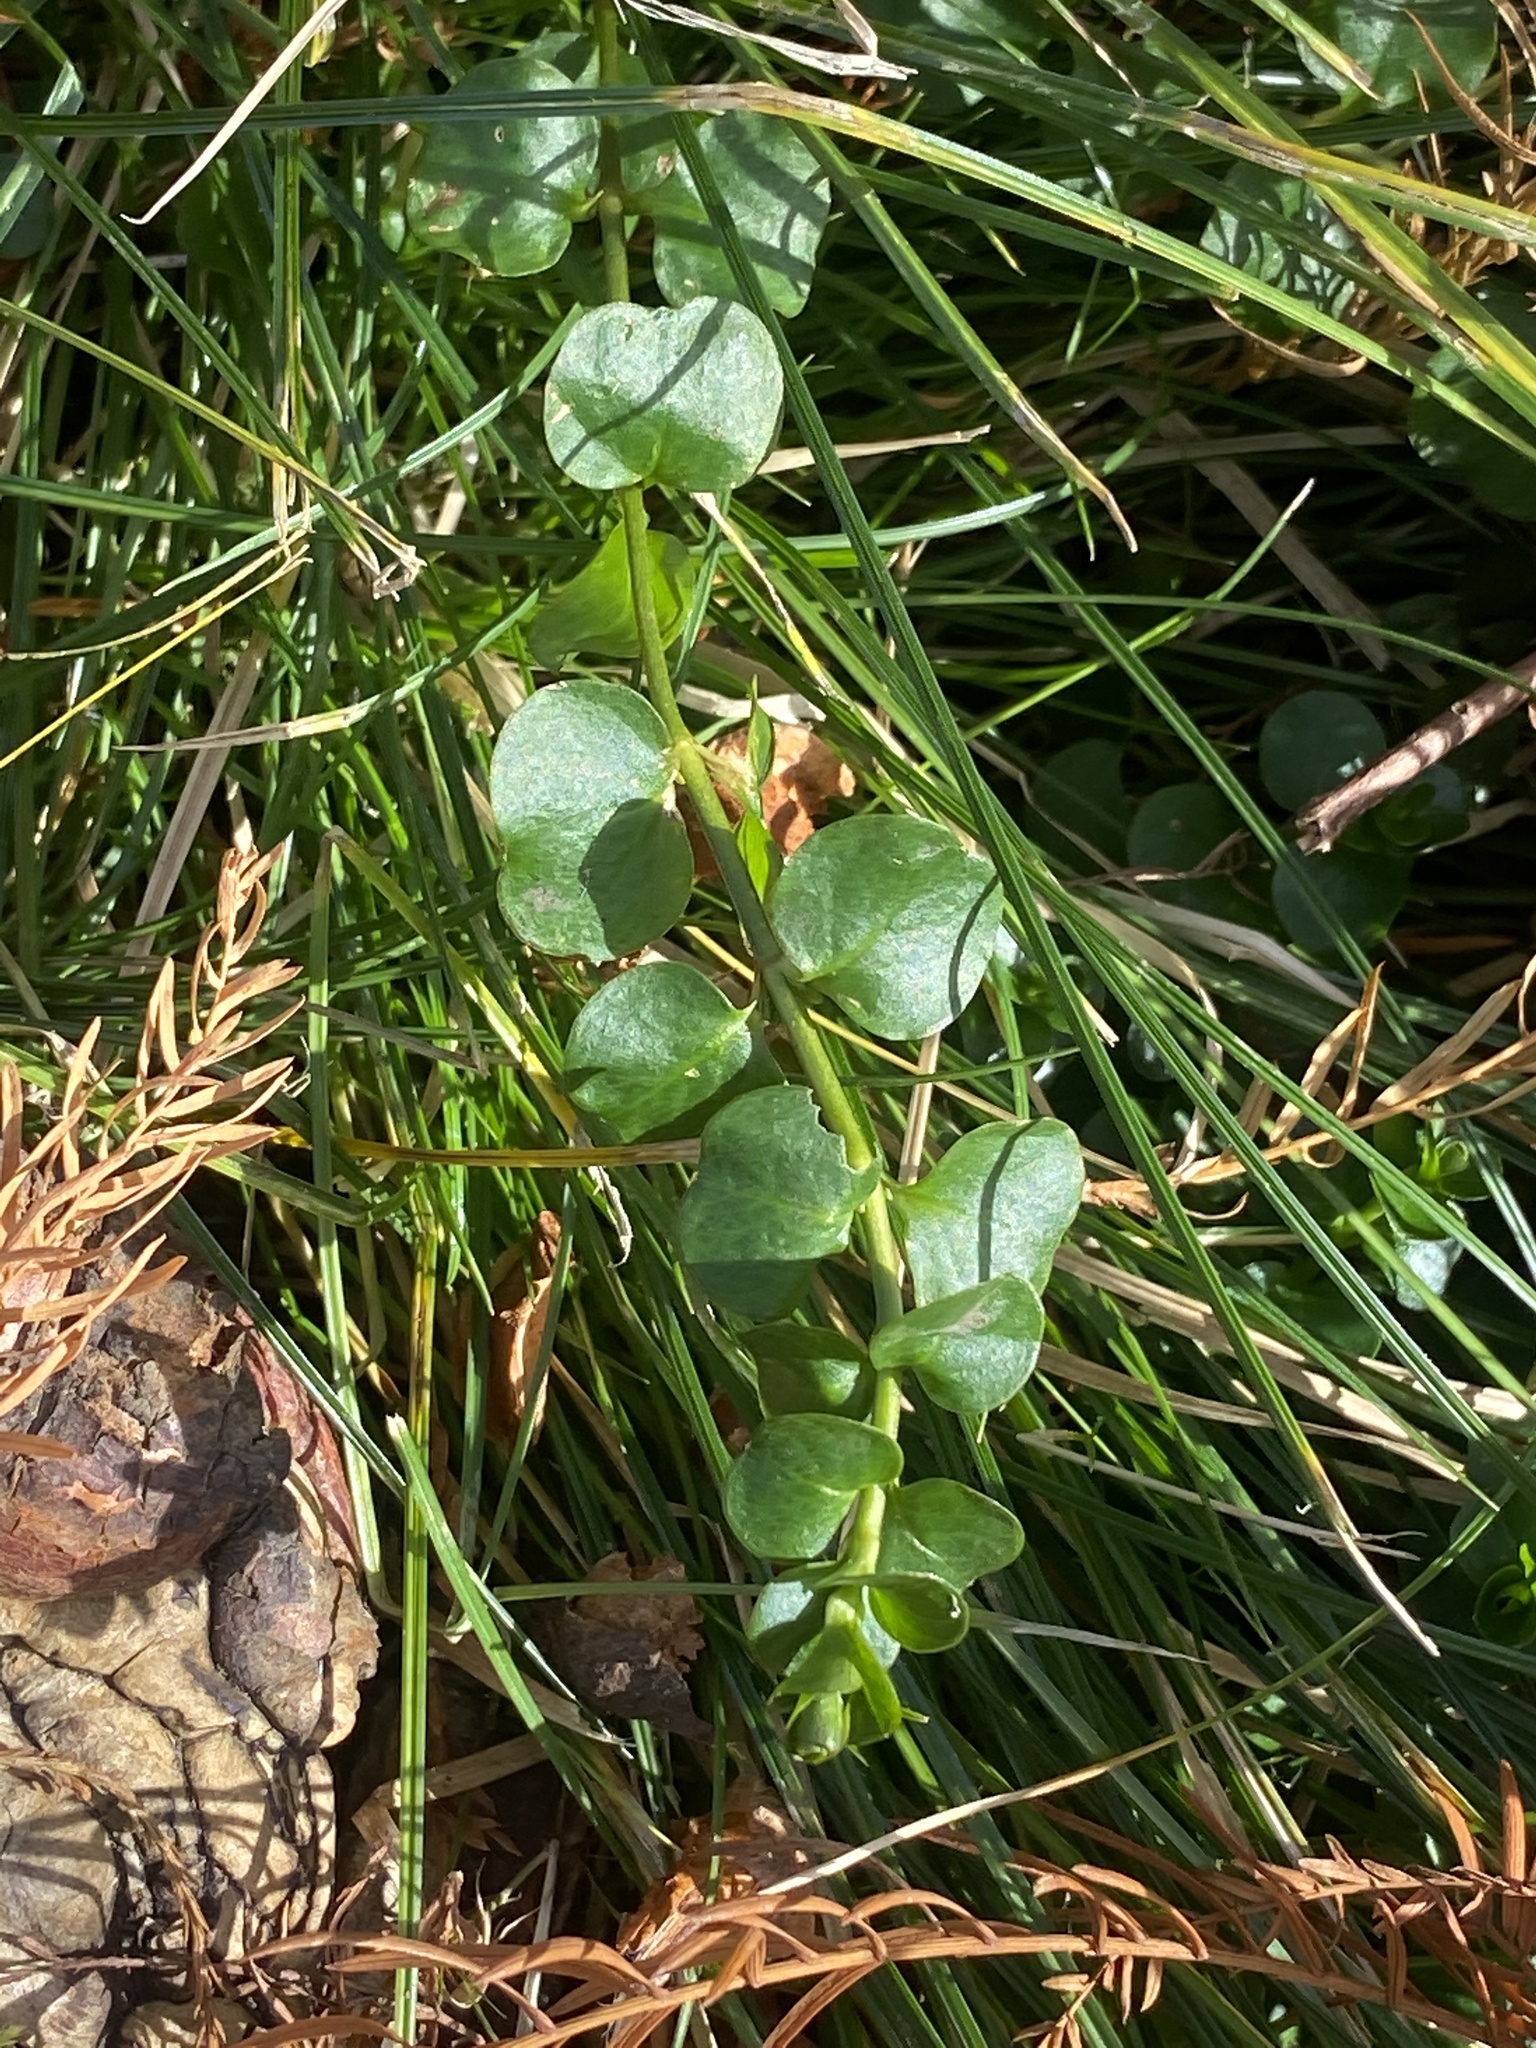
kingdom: Plantae
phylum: Tracheophyta
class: Magnoliopsida
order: Ericales
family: Primulaceae
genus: Lysimachia
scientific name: Lysimachia nummularia
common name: Moneywort
